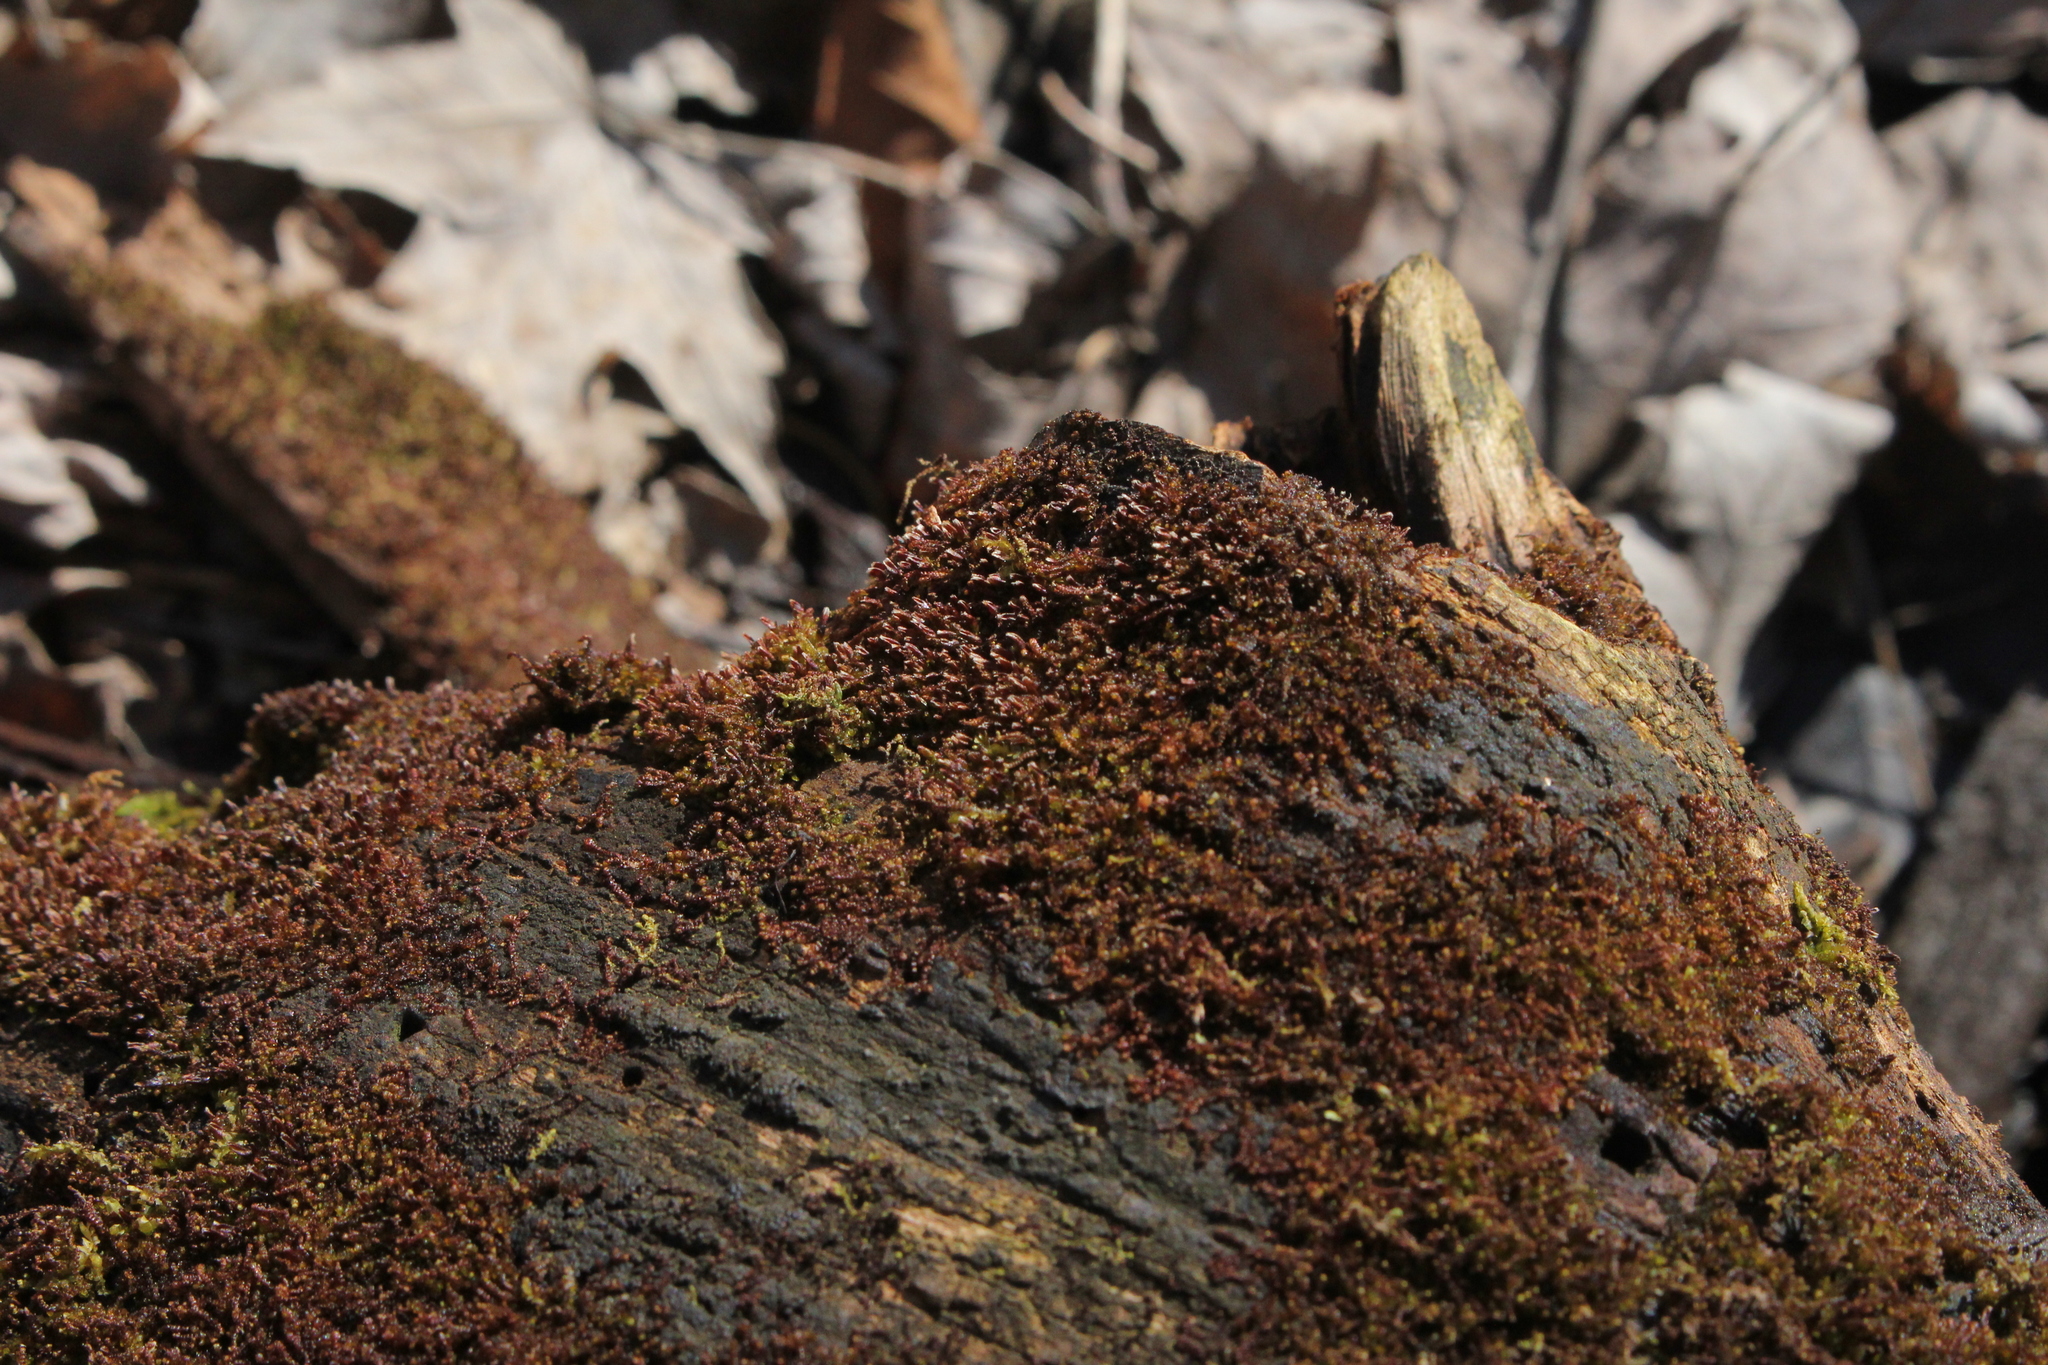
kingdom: Plantae
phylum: Marchantiophyta
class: Jungermanniopsida
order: Jungermanniales
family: Cephaloziaceae
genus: Nowellia
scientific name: Nowellia curvifolia
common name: Wood rustwort
